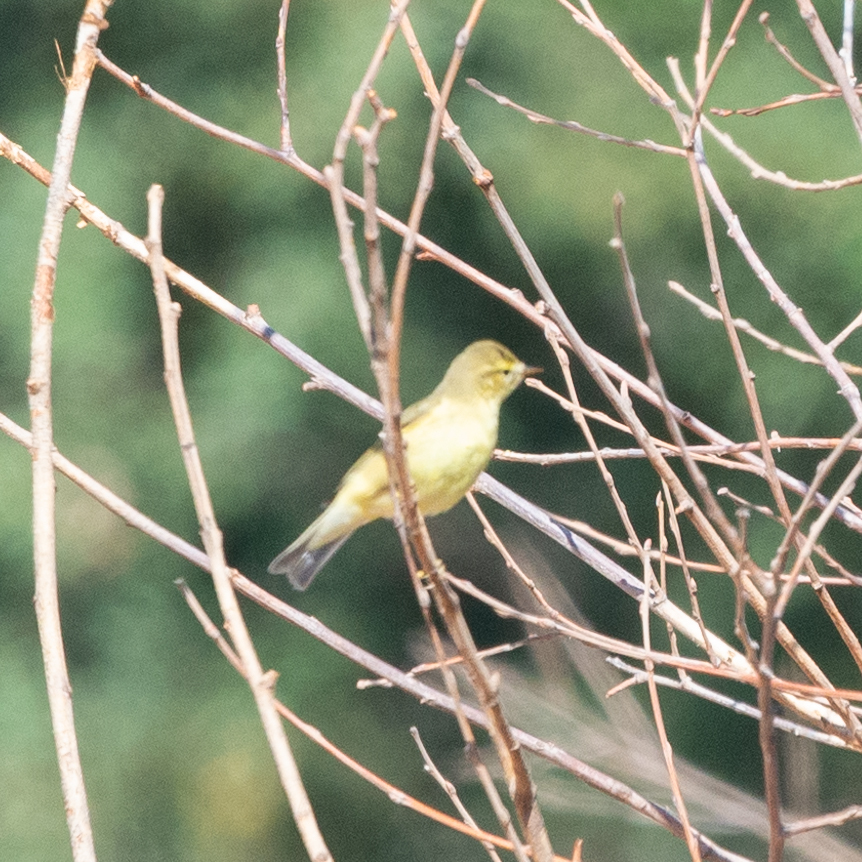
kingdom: Animalia
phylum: Chordata
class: Aves
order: Passeriformes
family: Phylloscopidae
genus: Phylloscopus
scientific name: Phylloscopus trochilus
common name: Willow warbler
